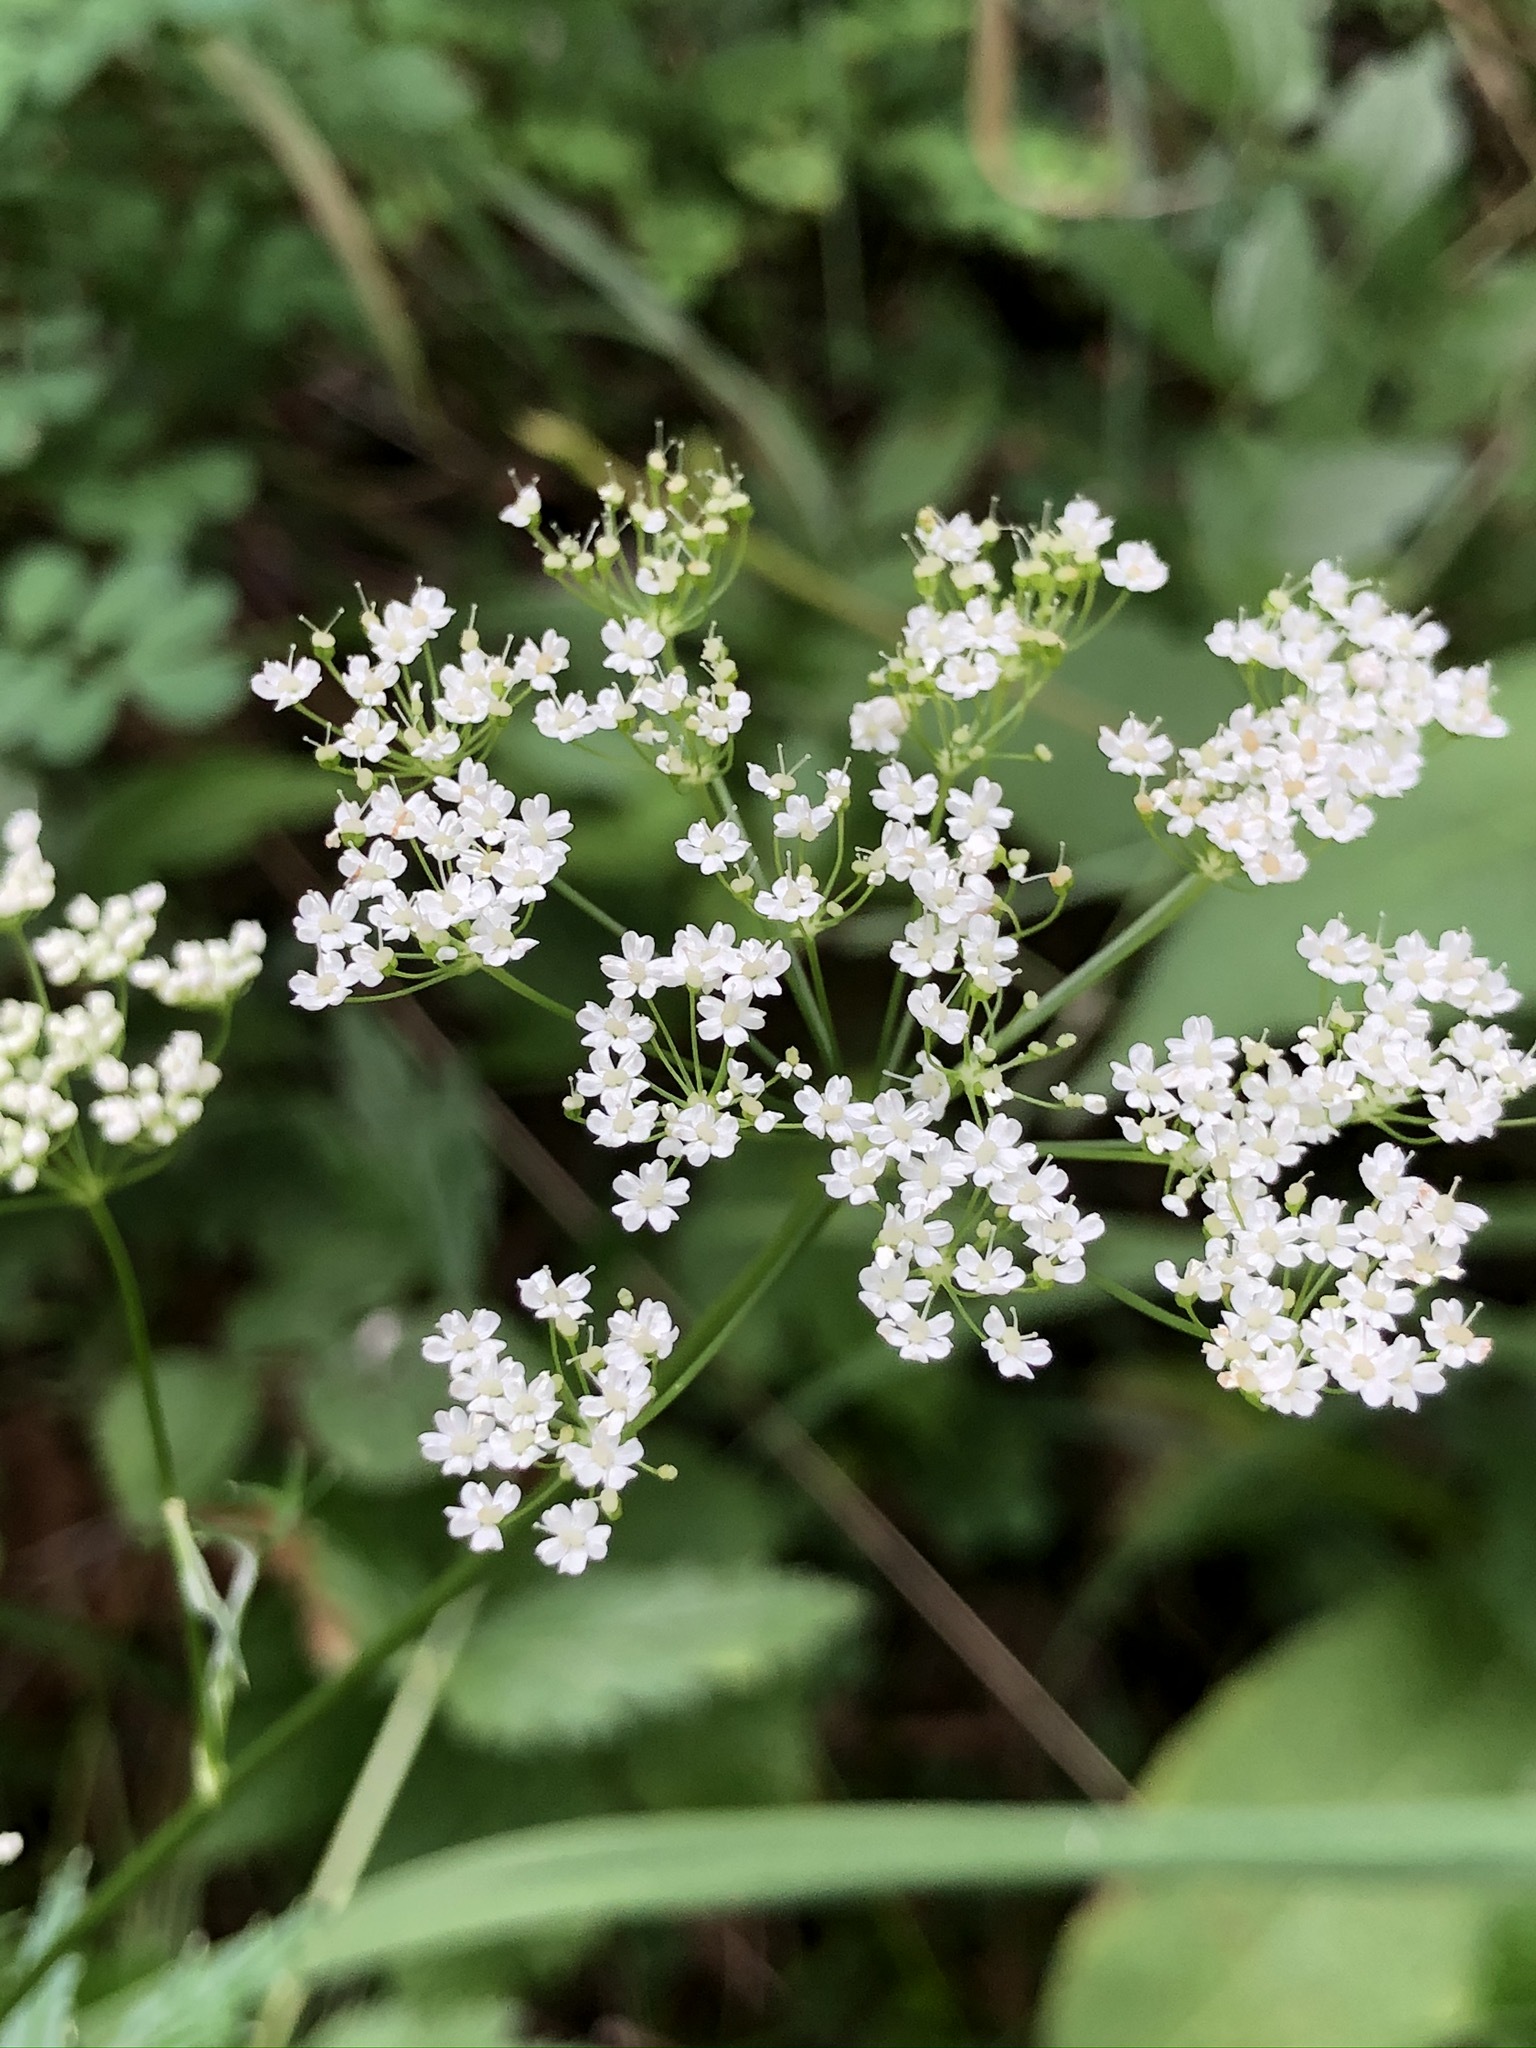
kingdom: Plantae
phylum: Tracheophyta
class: Magnoliopsida
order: Apiales
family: Apiaceae
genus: Pimpinella
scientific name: Pimpinella major
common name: Greater burnet-saxifrage
